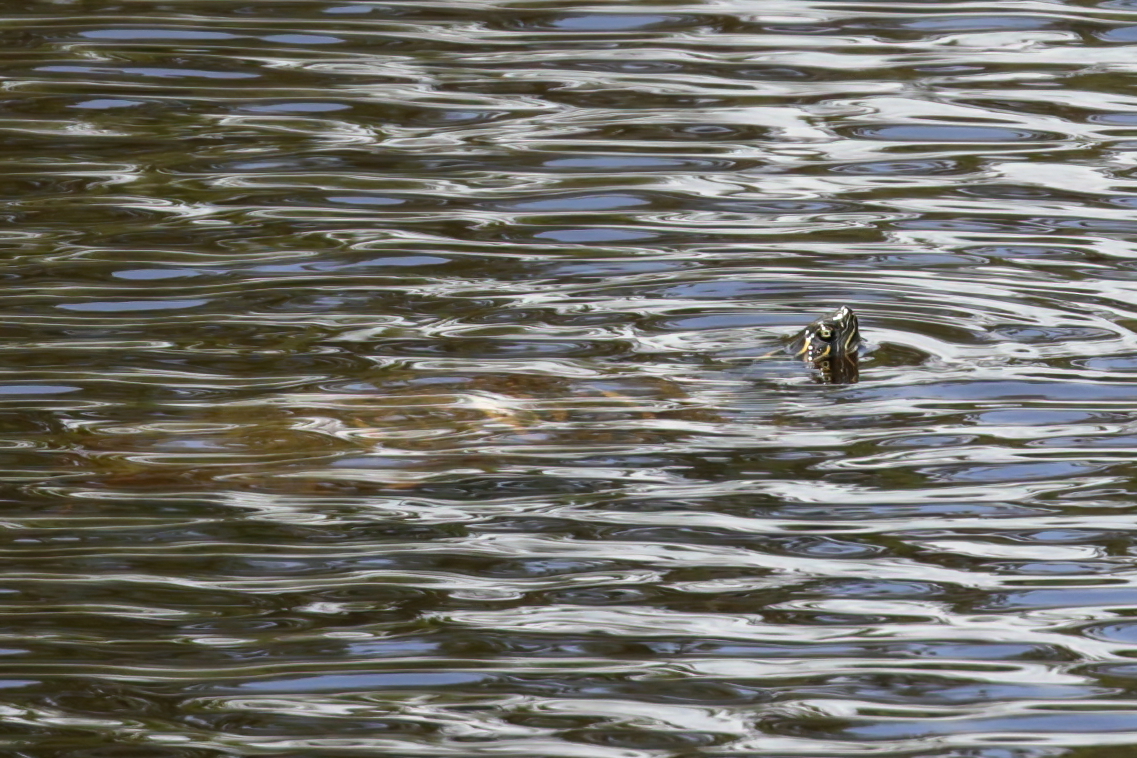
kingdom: Animalia
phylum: Chordata
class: Testudines
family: Emydidae
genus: Pseudemys
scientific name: Pseudemys concinna
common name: Eastern river cooter
